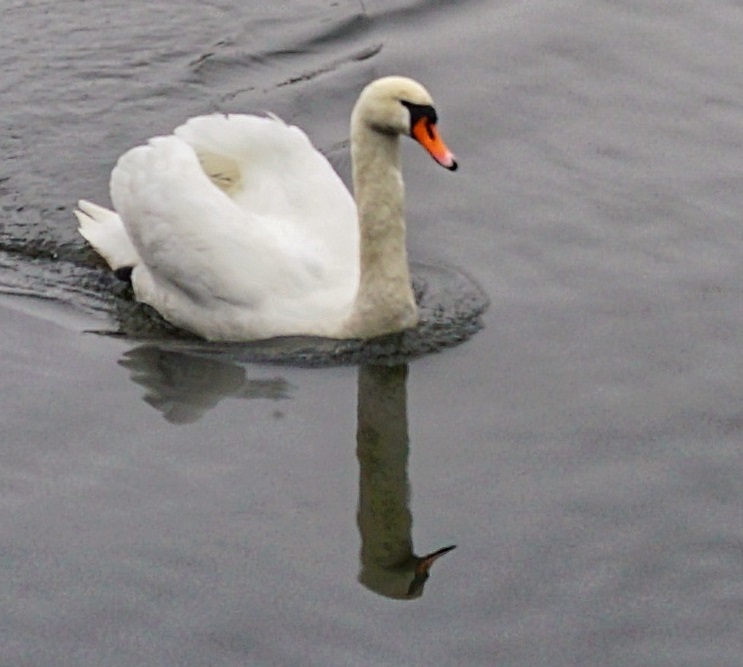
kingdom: Animalia
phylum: Chordata
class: Aves
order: Anseriformes
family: Anatidae
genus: Cygnus
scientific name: Cygnus olor
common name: Mute swan
